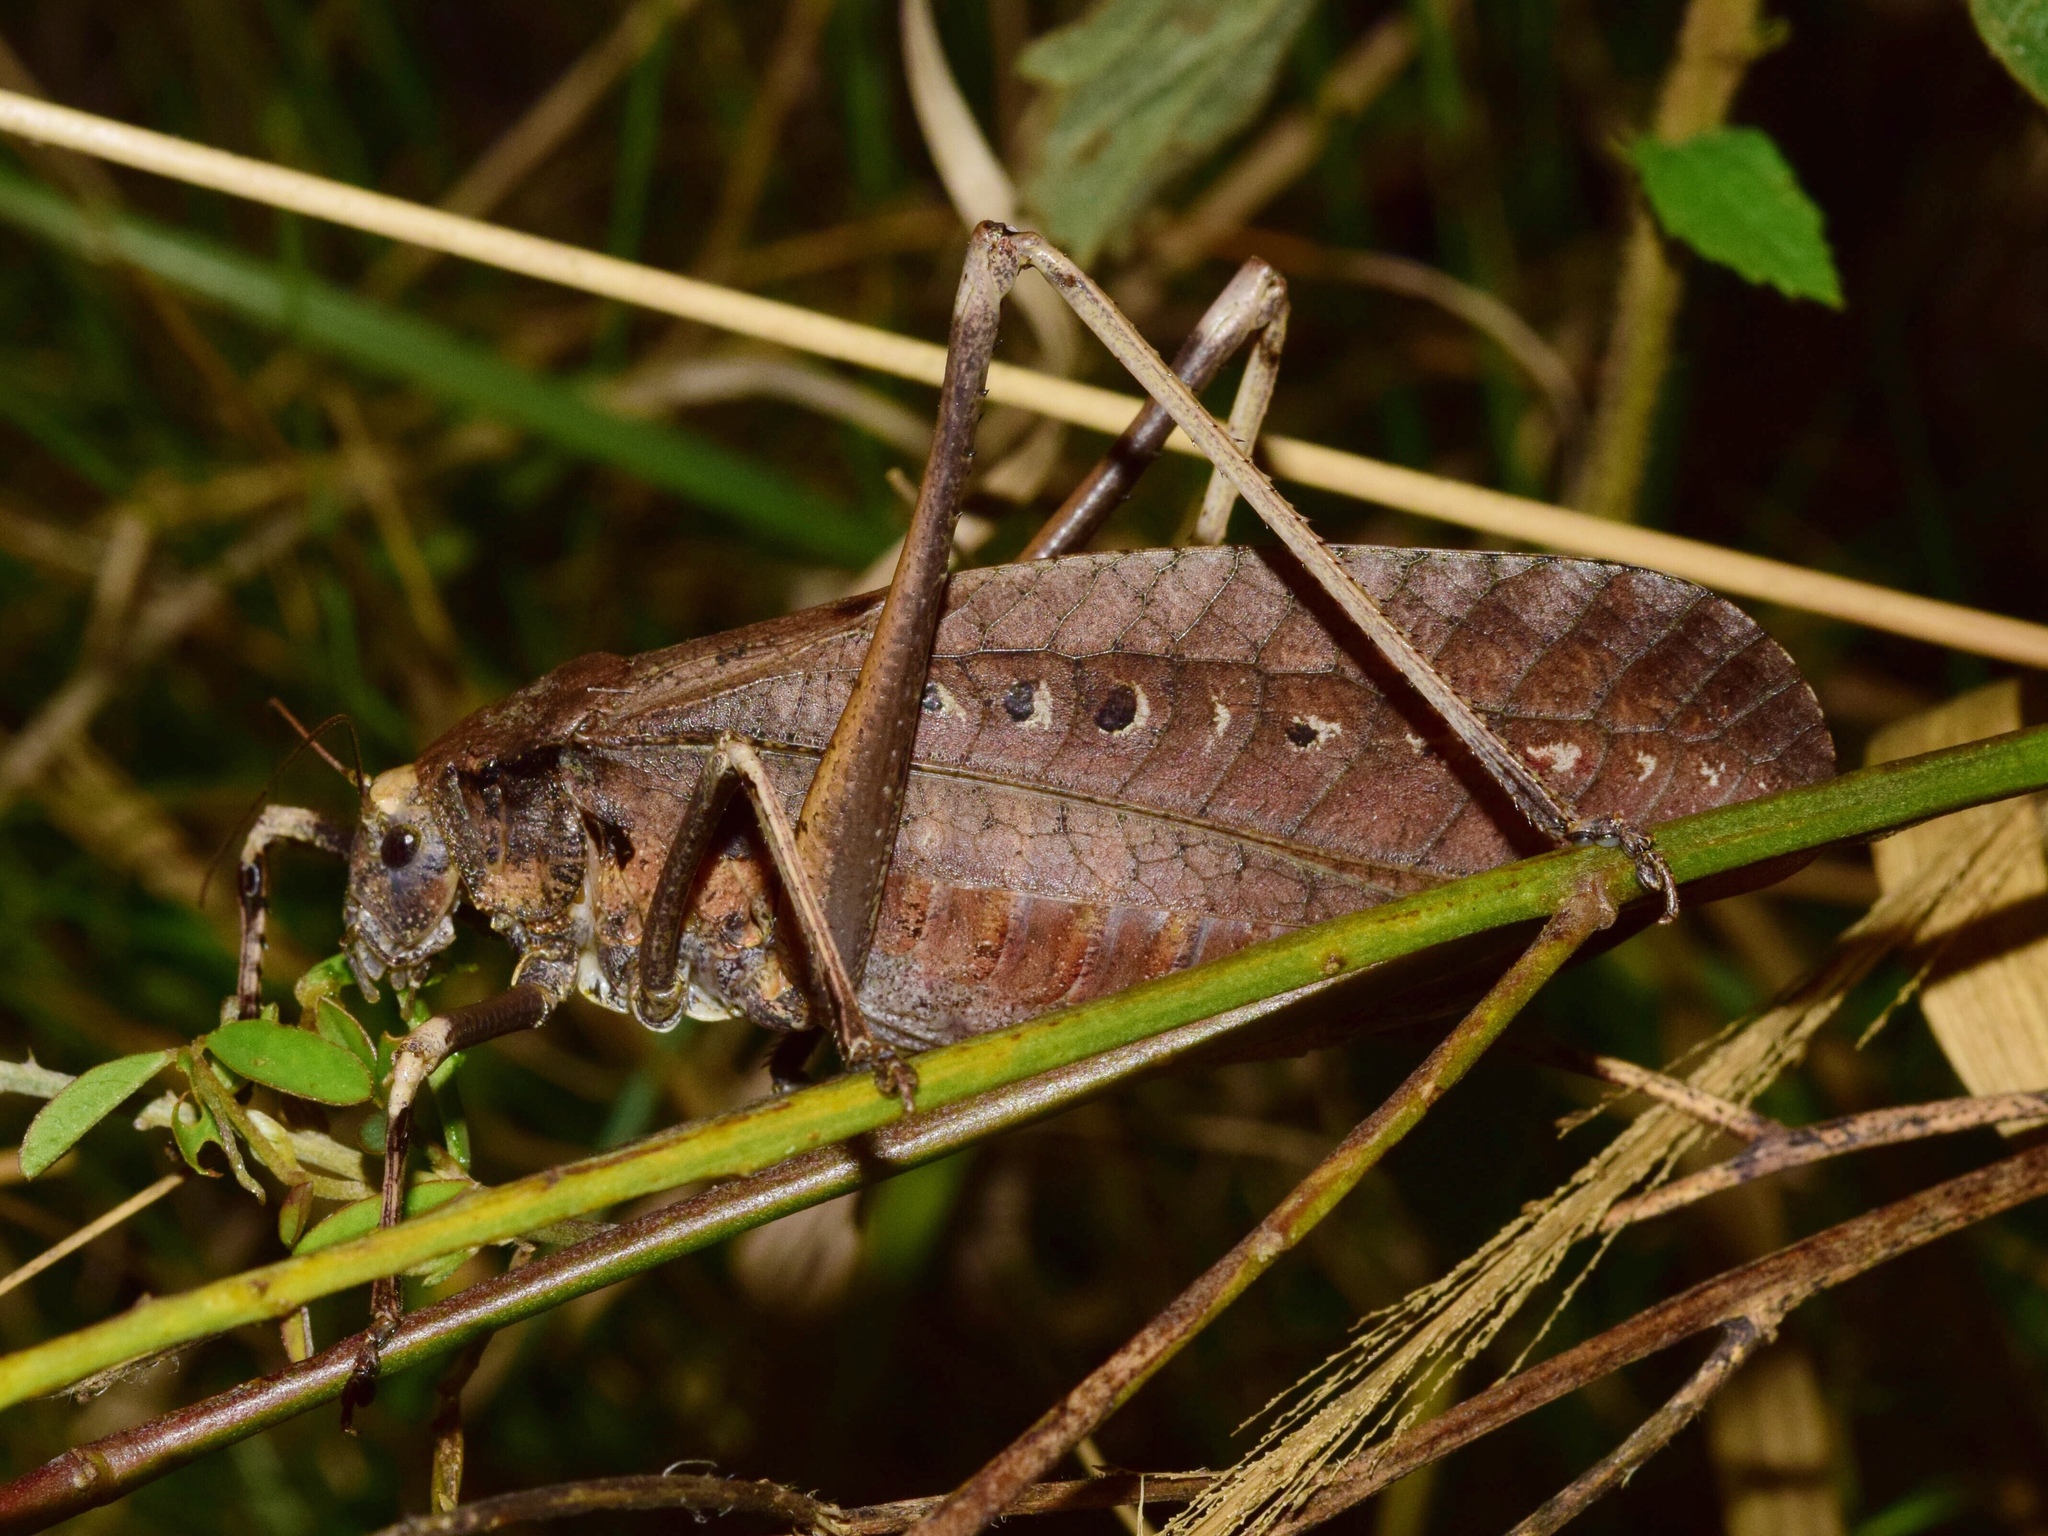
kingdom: Animalia
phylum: Arthropoda
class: Insecta
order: Orthoptera
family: Tettigoniidae
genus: Anoedopoda
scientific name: Anoedopoda lamellata
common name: African mecopod
